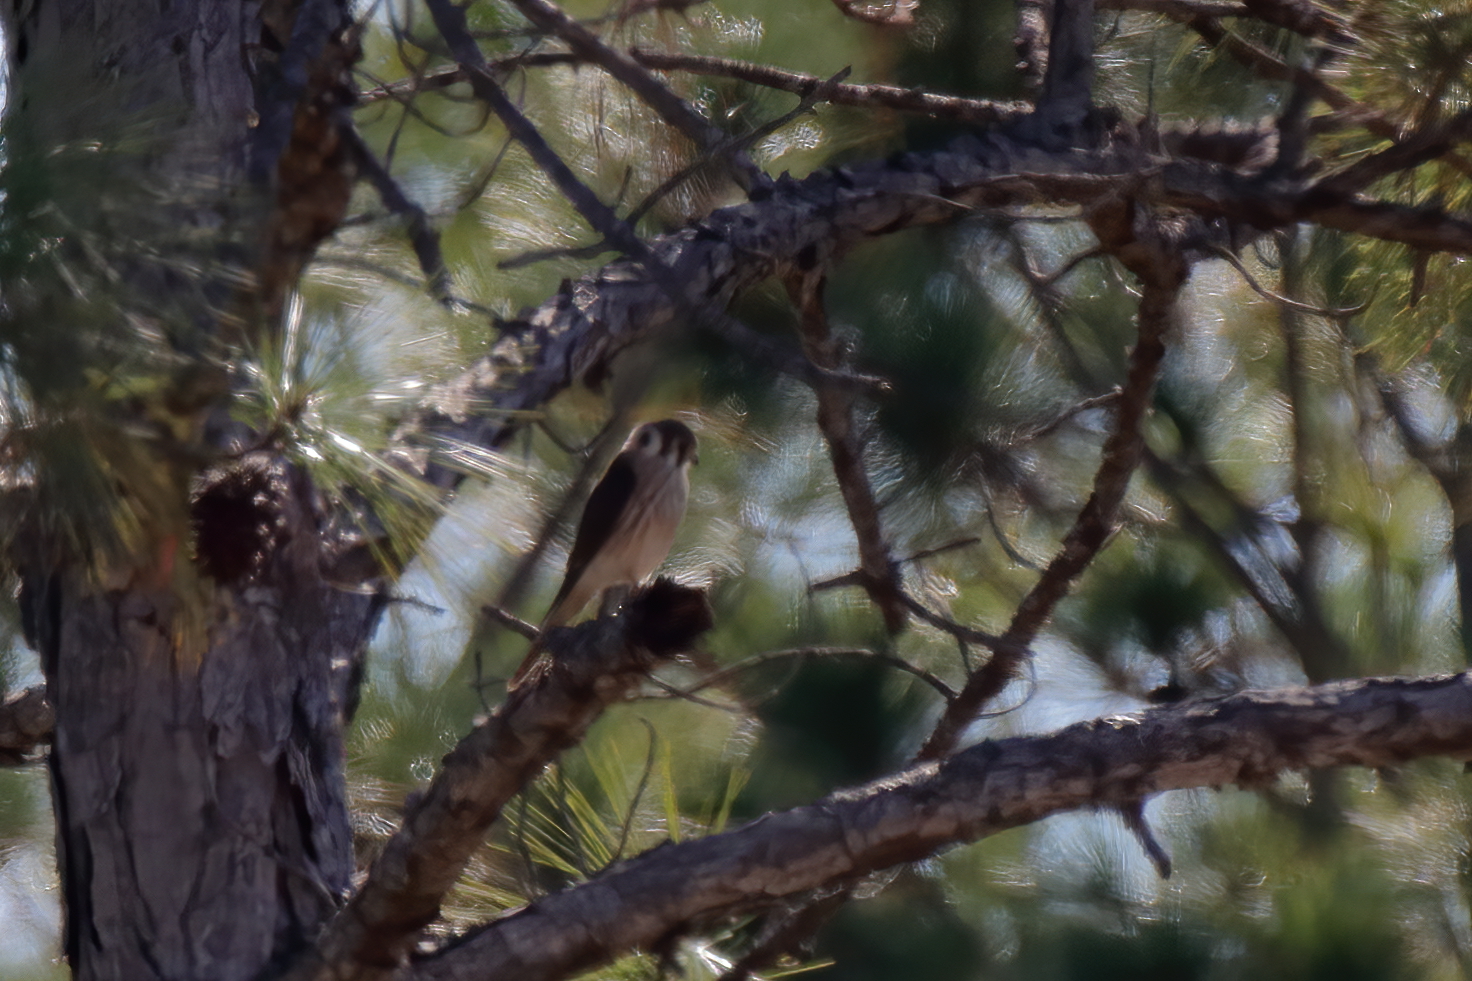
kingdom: Animalia
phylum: Chordata
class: Aves
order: Falconiformes
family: Falconidae
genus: Falco
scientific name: Falco sparverius
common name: American kestrel
